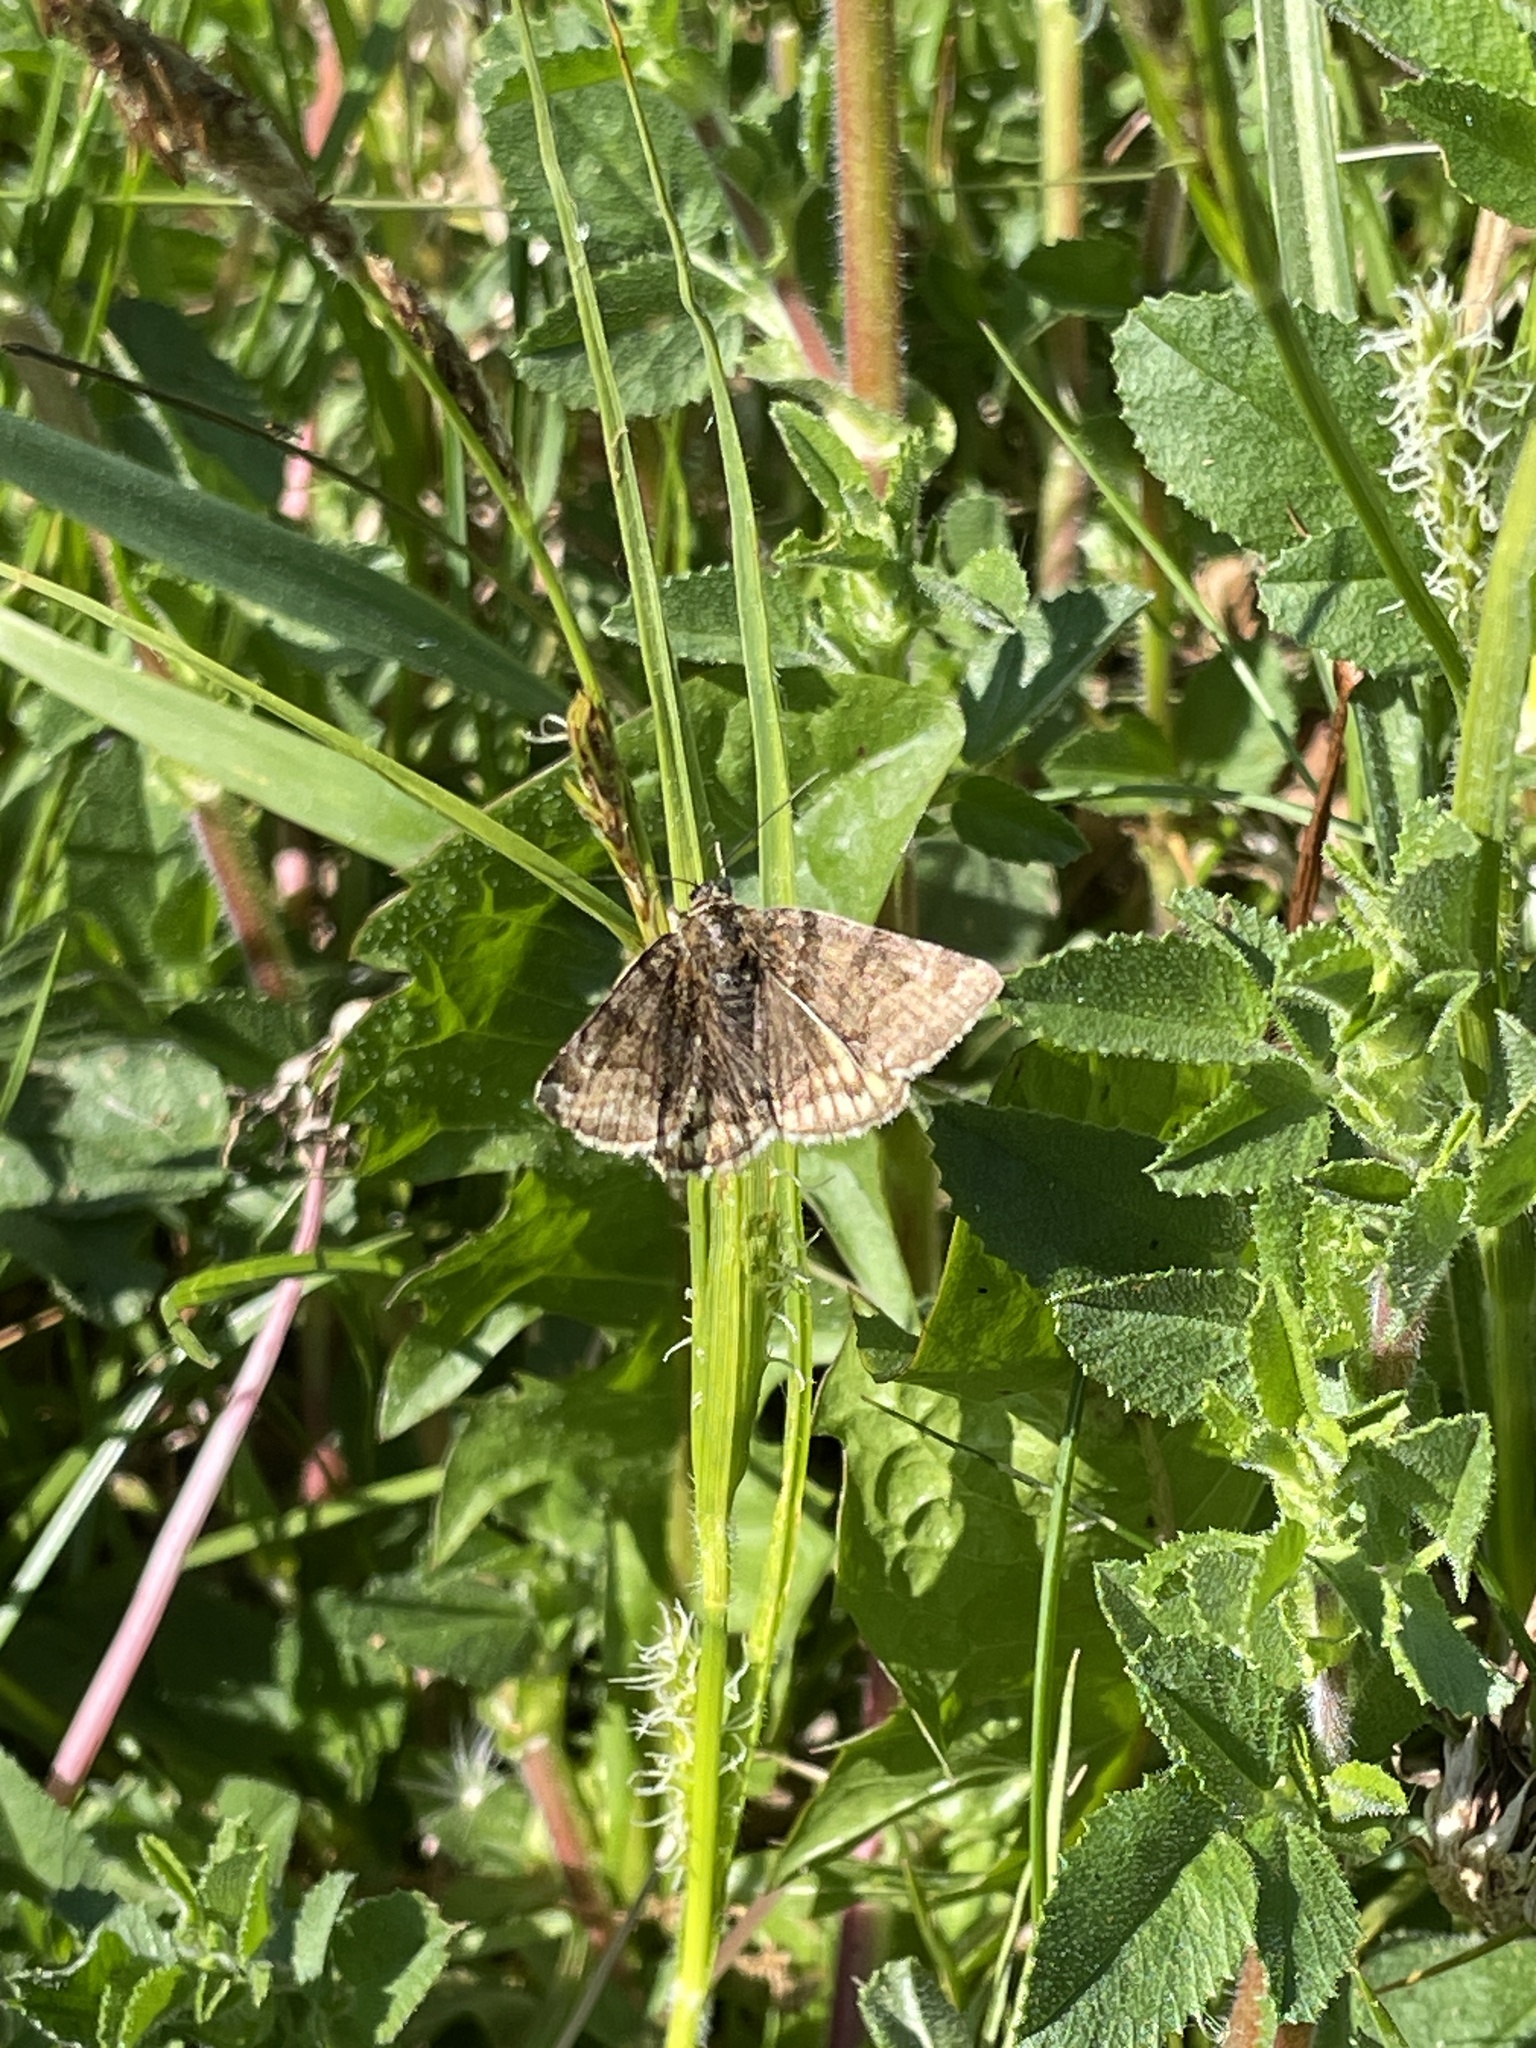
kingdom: Animalia
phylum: Arthropoda
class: Insecta
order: Lepidoptera
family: Erebidae
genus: Euclidia
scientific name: Euclidia glyphica
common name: Burnet companion
